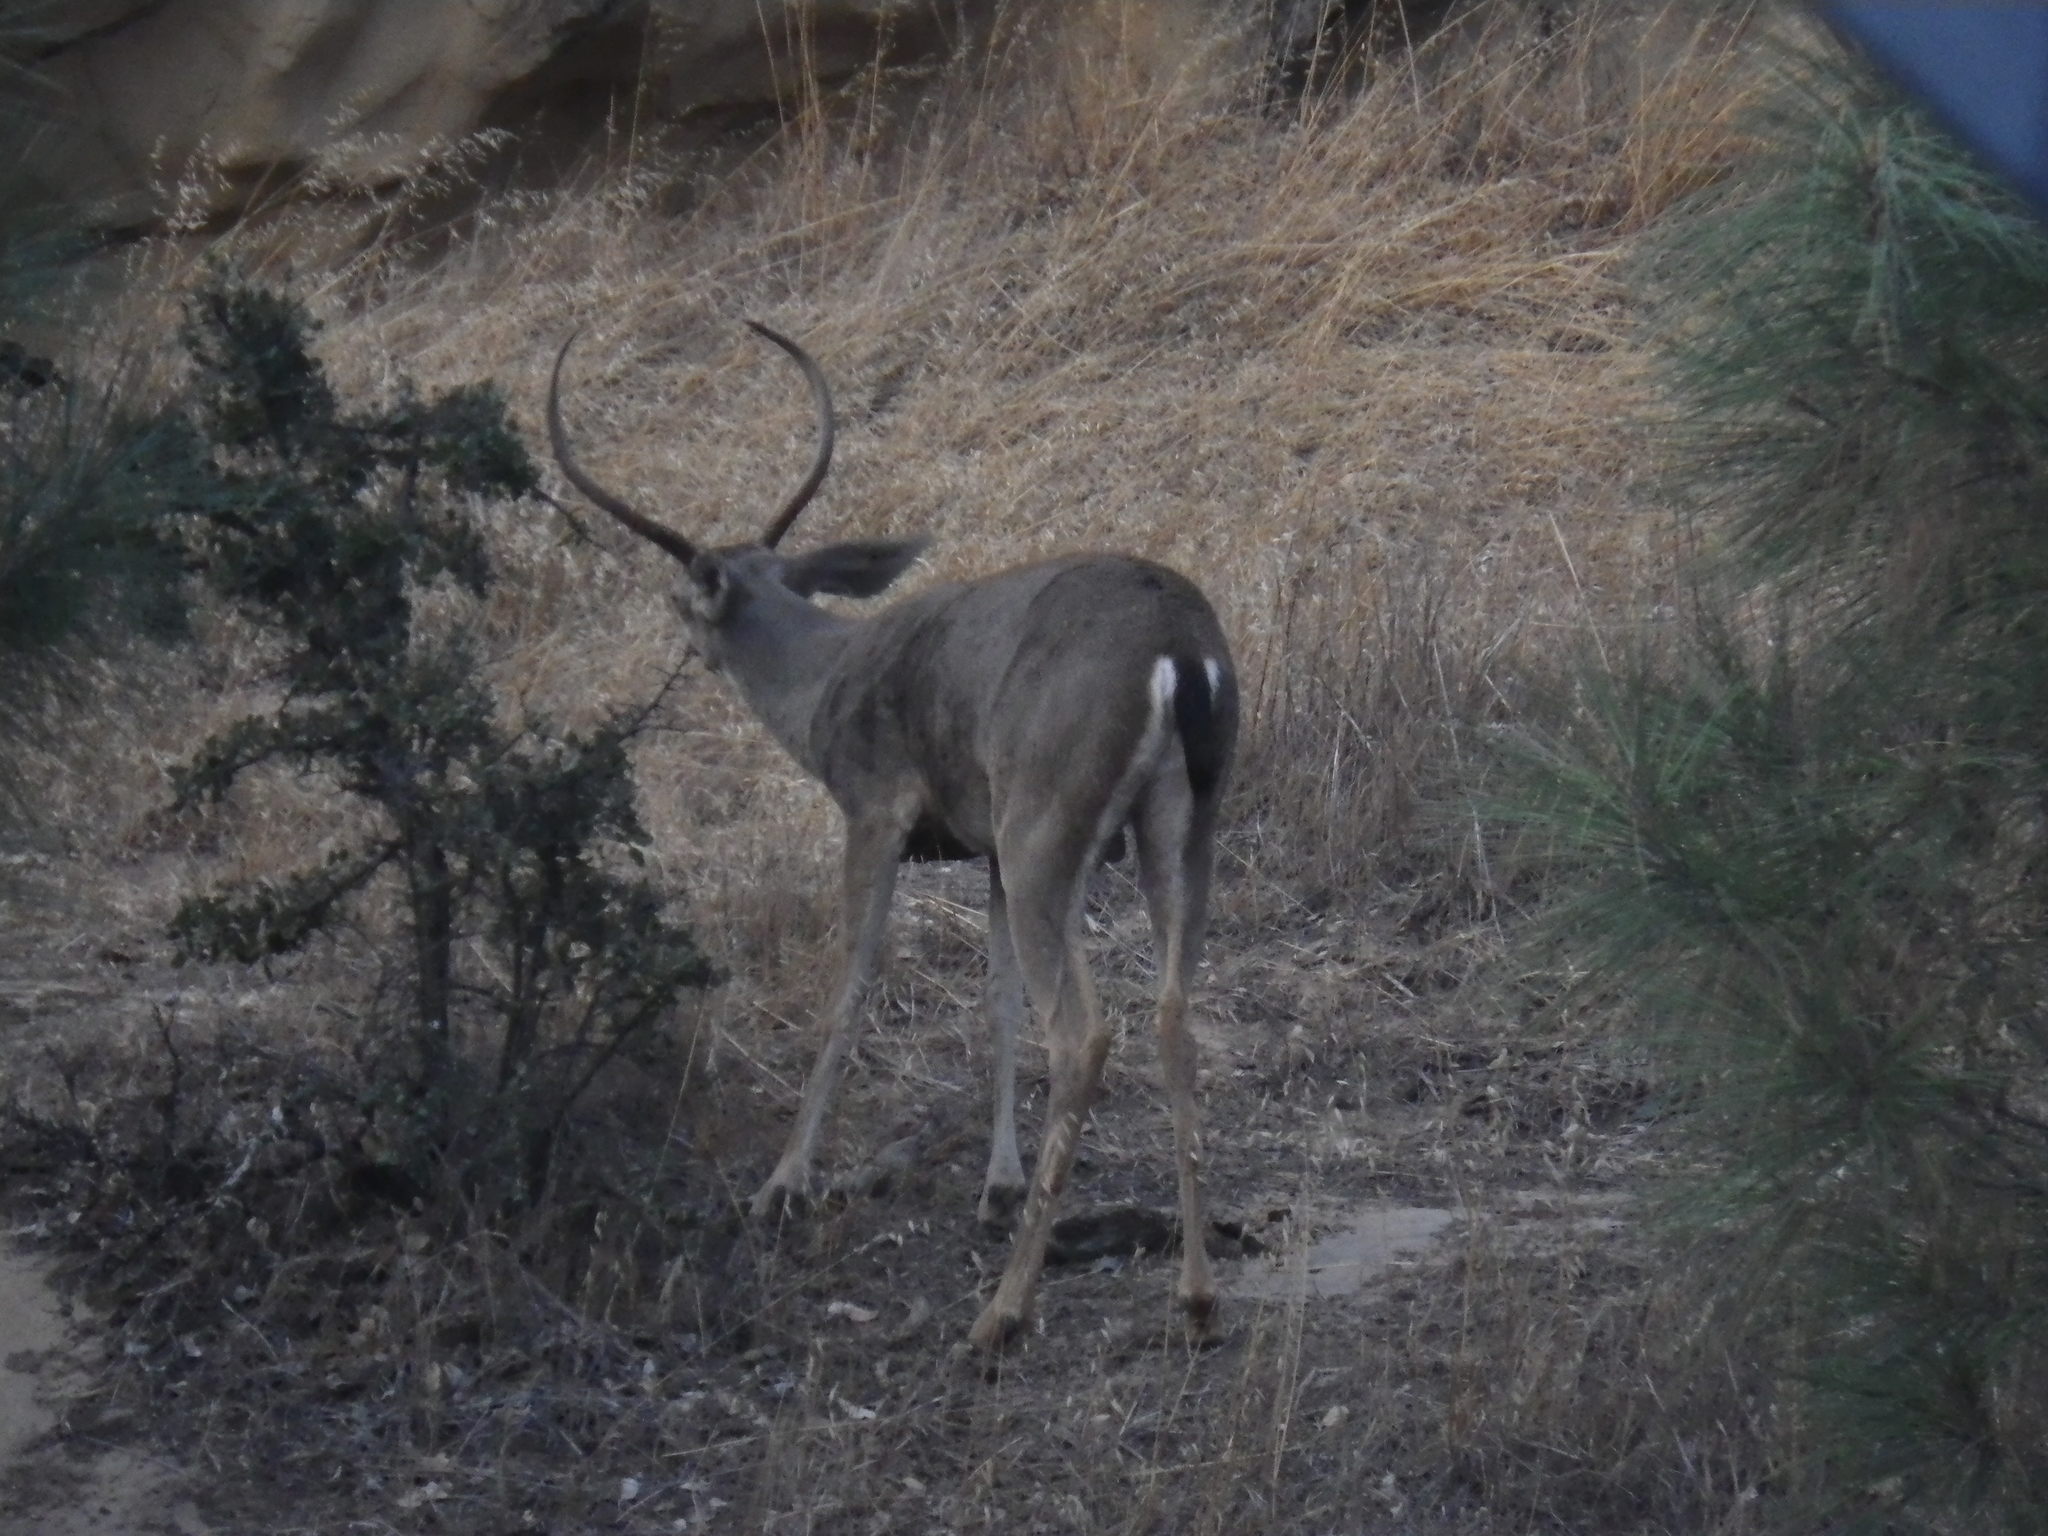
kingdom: Animalia
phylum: Chordata
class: Mammalia
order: Artiodactyla
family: Cervidae
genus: Odocoileus
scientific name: Odocoileus hemionus
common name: Mule deer
